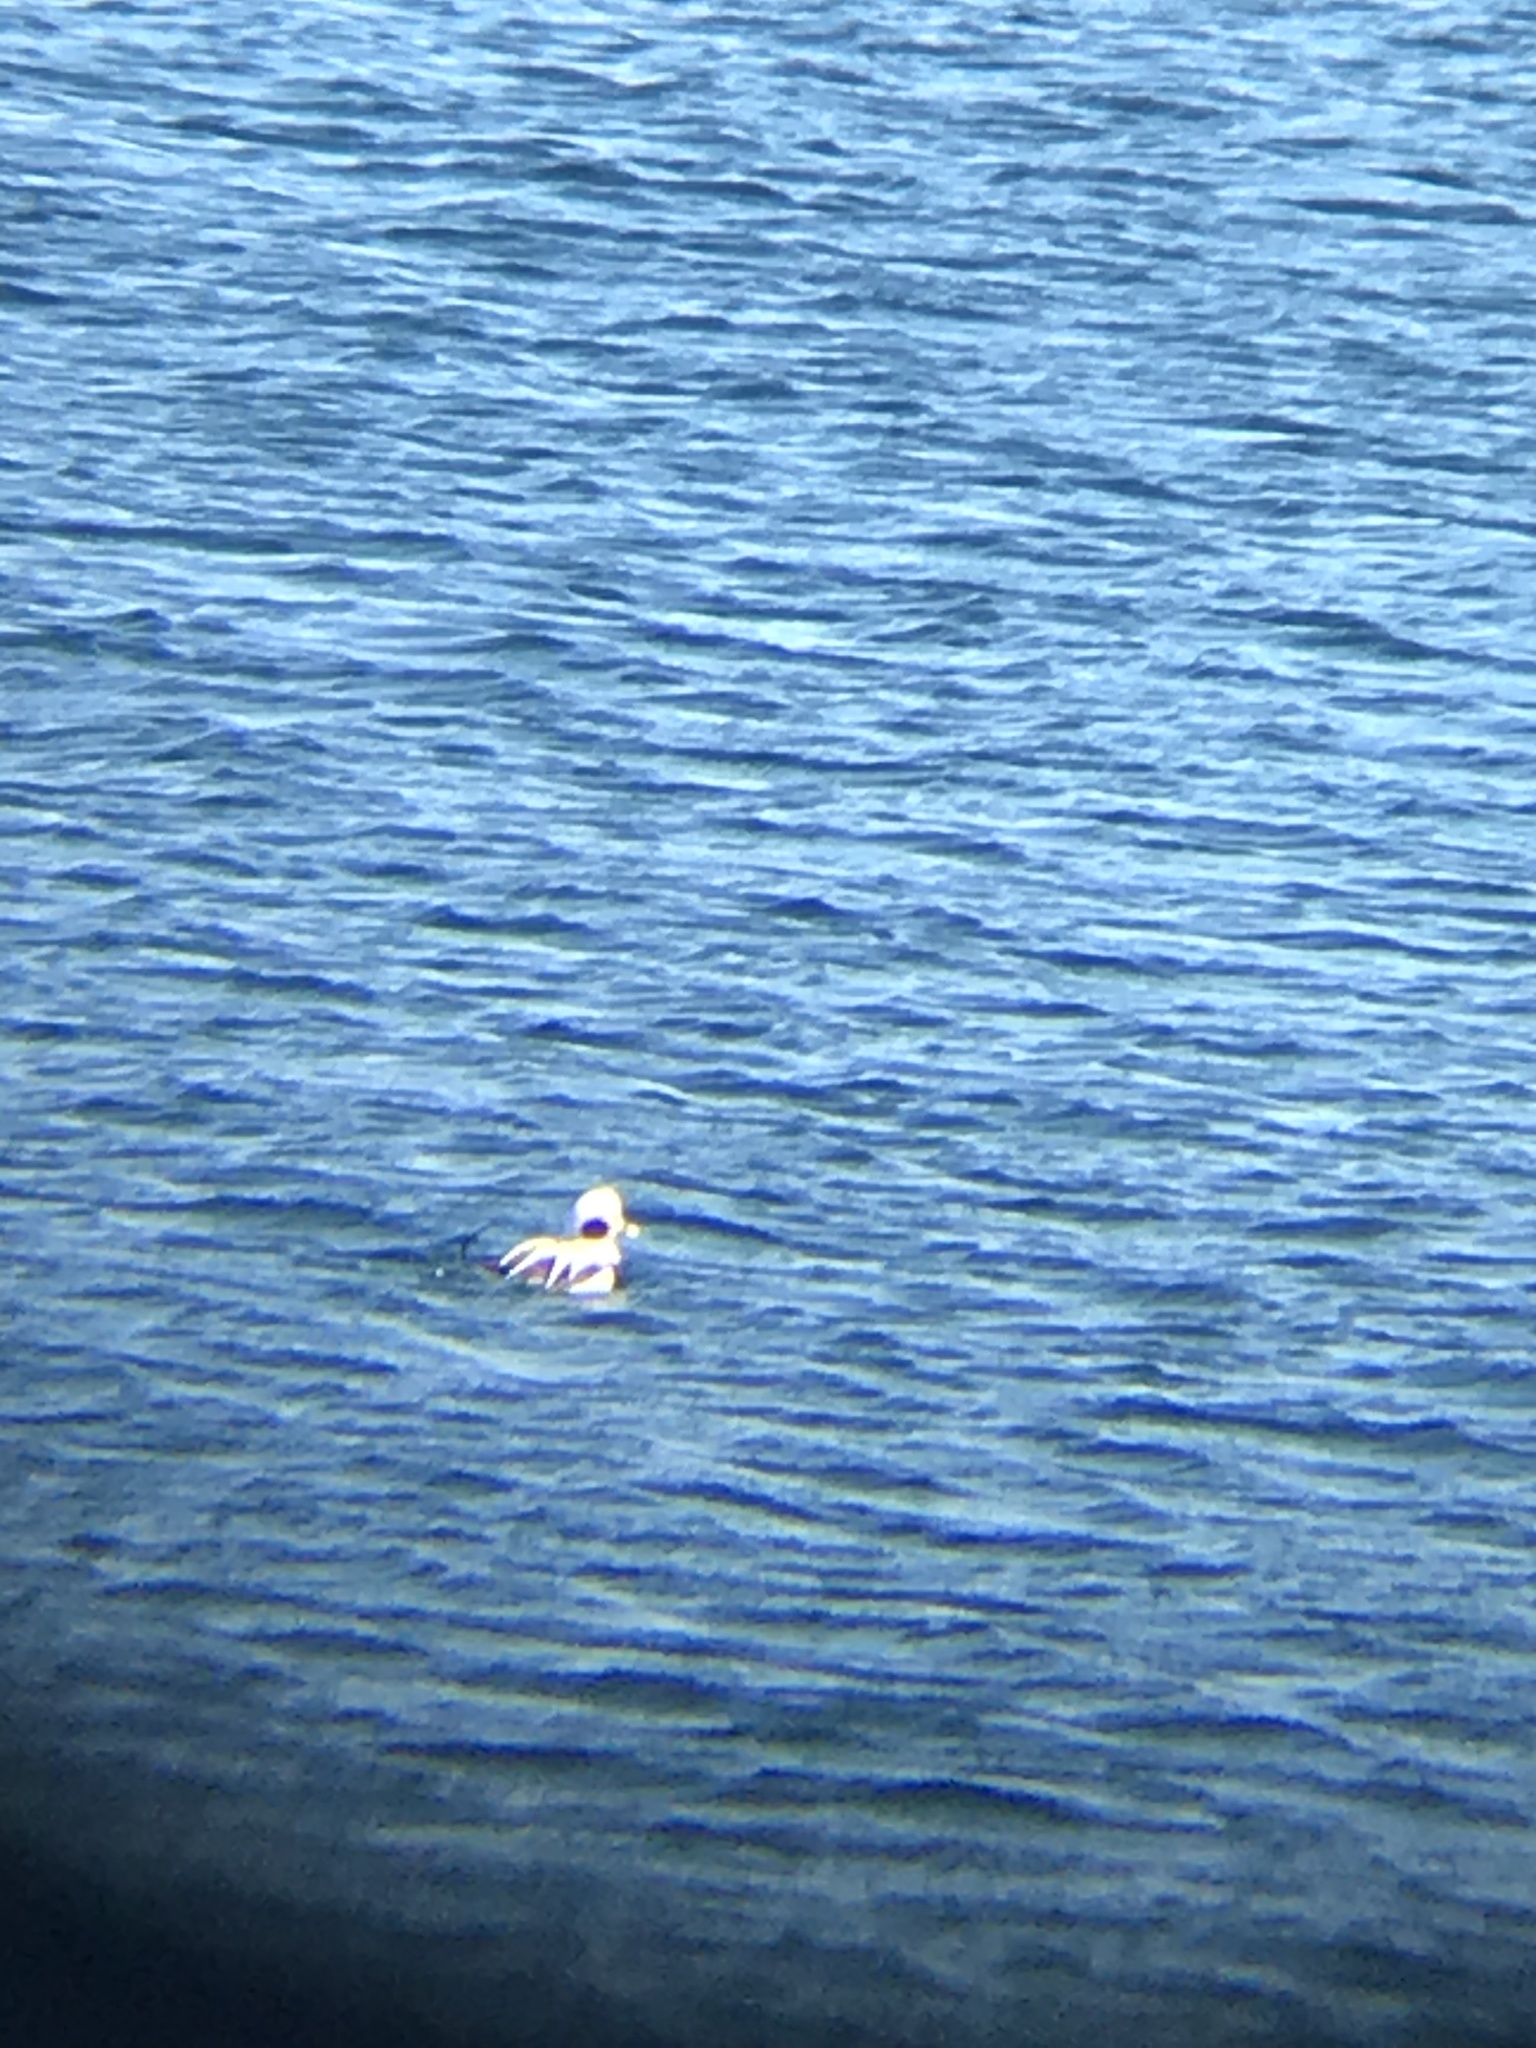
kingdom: Animalia
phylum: Chordata
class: Aves
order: Anseriformes
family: Anatidae
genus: Clangula
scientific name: Clangula hyemalis
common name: Long-tailed duck
